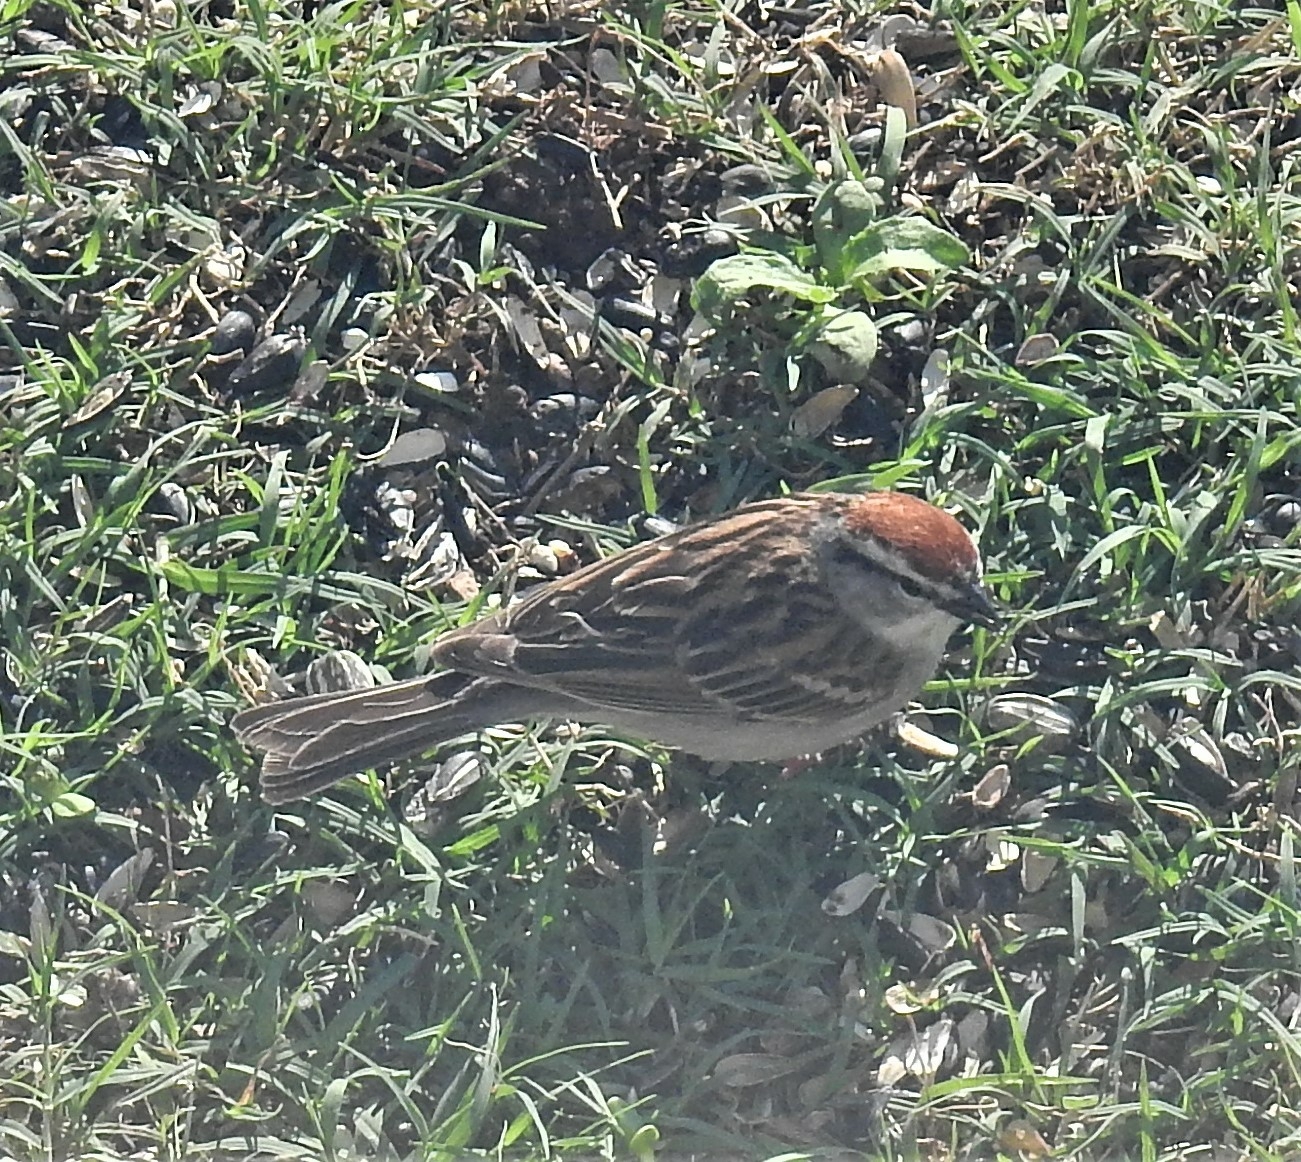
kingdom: Animalia
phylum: Chordata
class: Aves
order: Passeriformes
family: Passerellidae
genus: Spizella
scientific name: Spizella passerina
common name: Chipping sparrow
